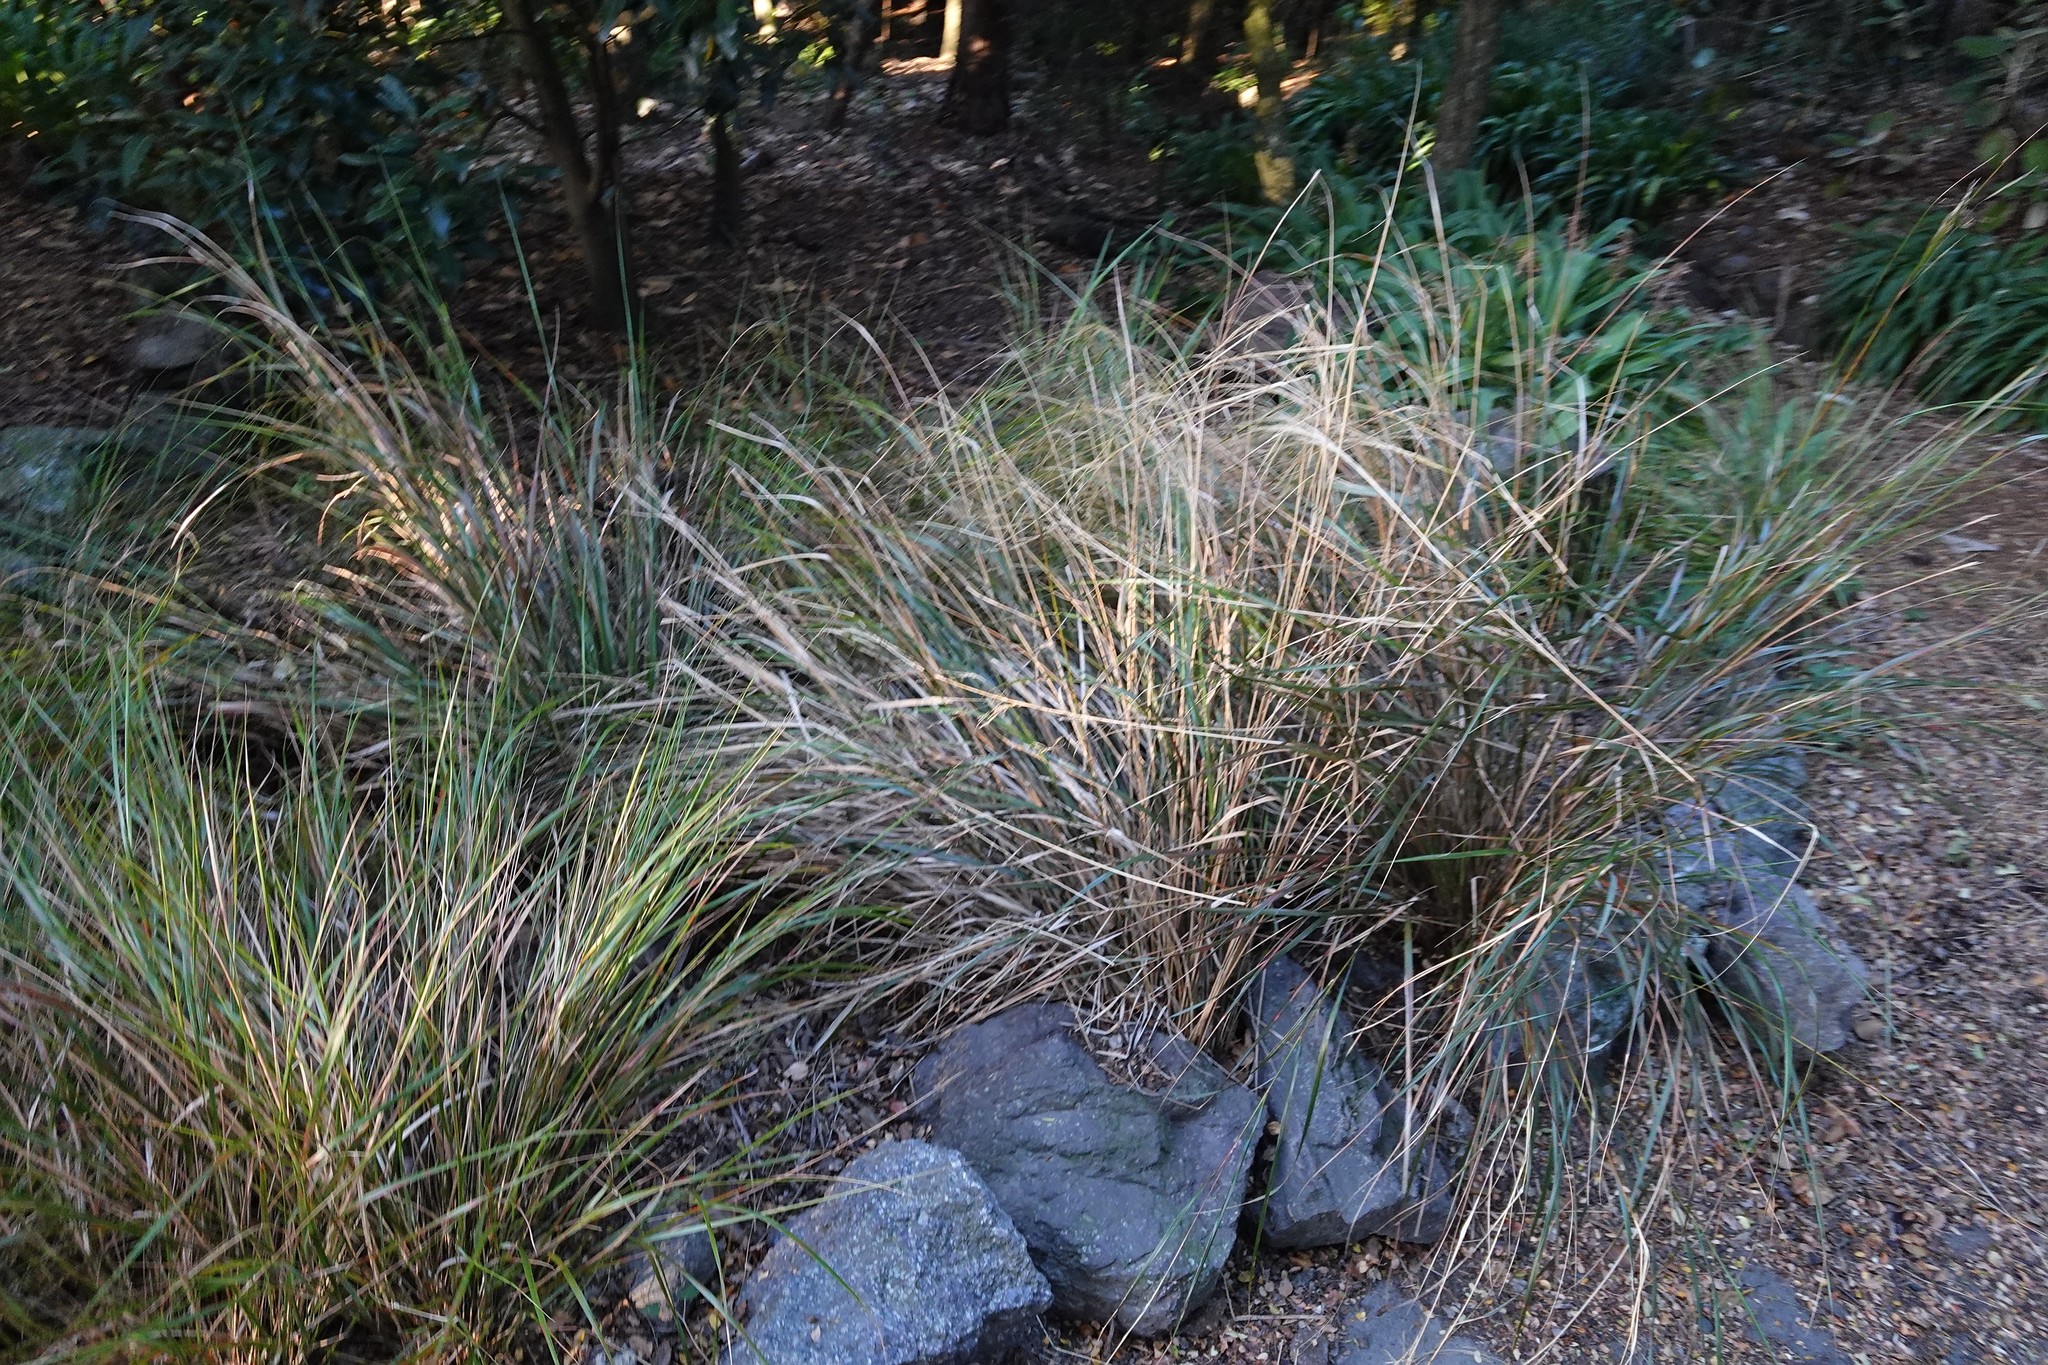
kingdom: Plantae
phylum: Tracheophyta
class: Liliopsida
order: Poales
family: Poaceae
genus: Anemanthele
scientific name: Anemanthele lessoniana
